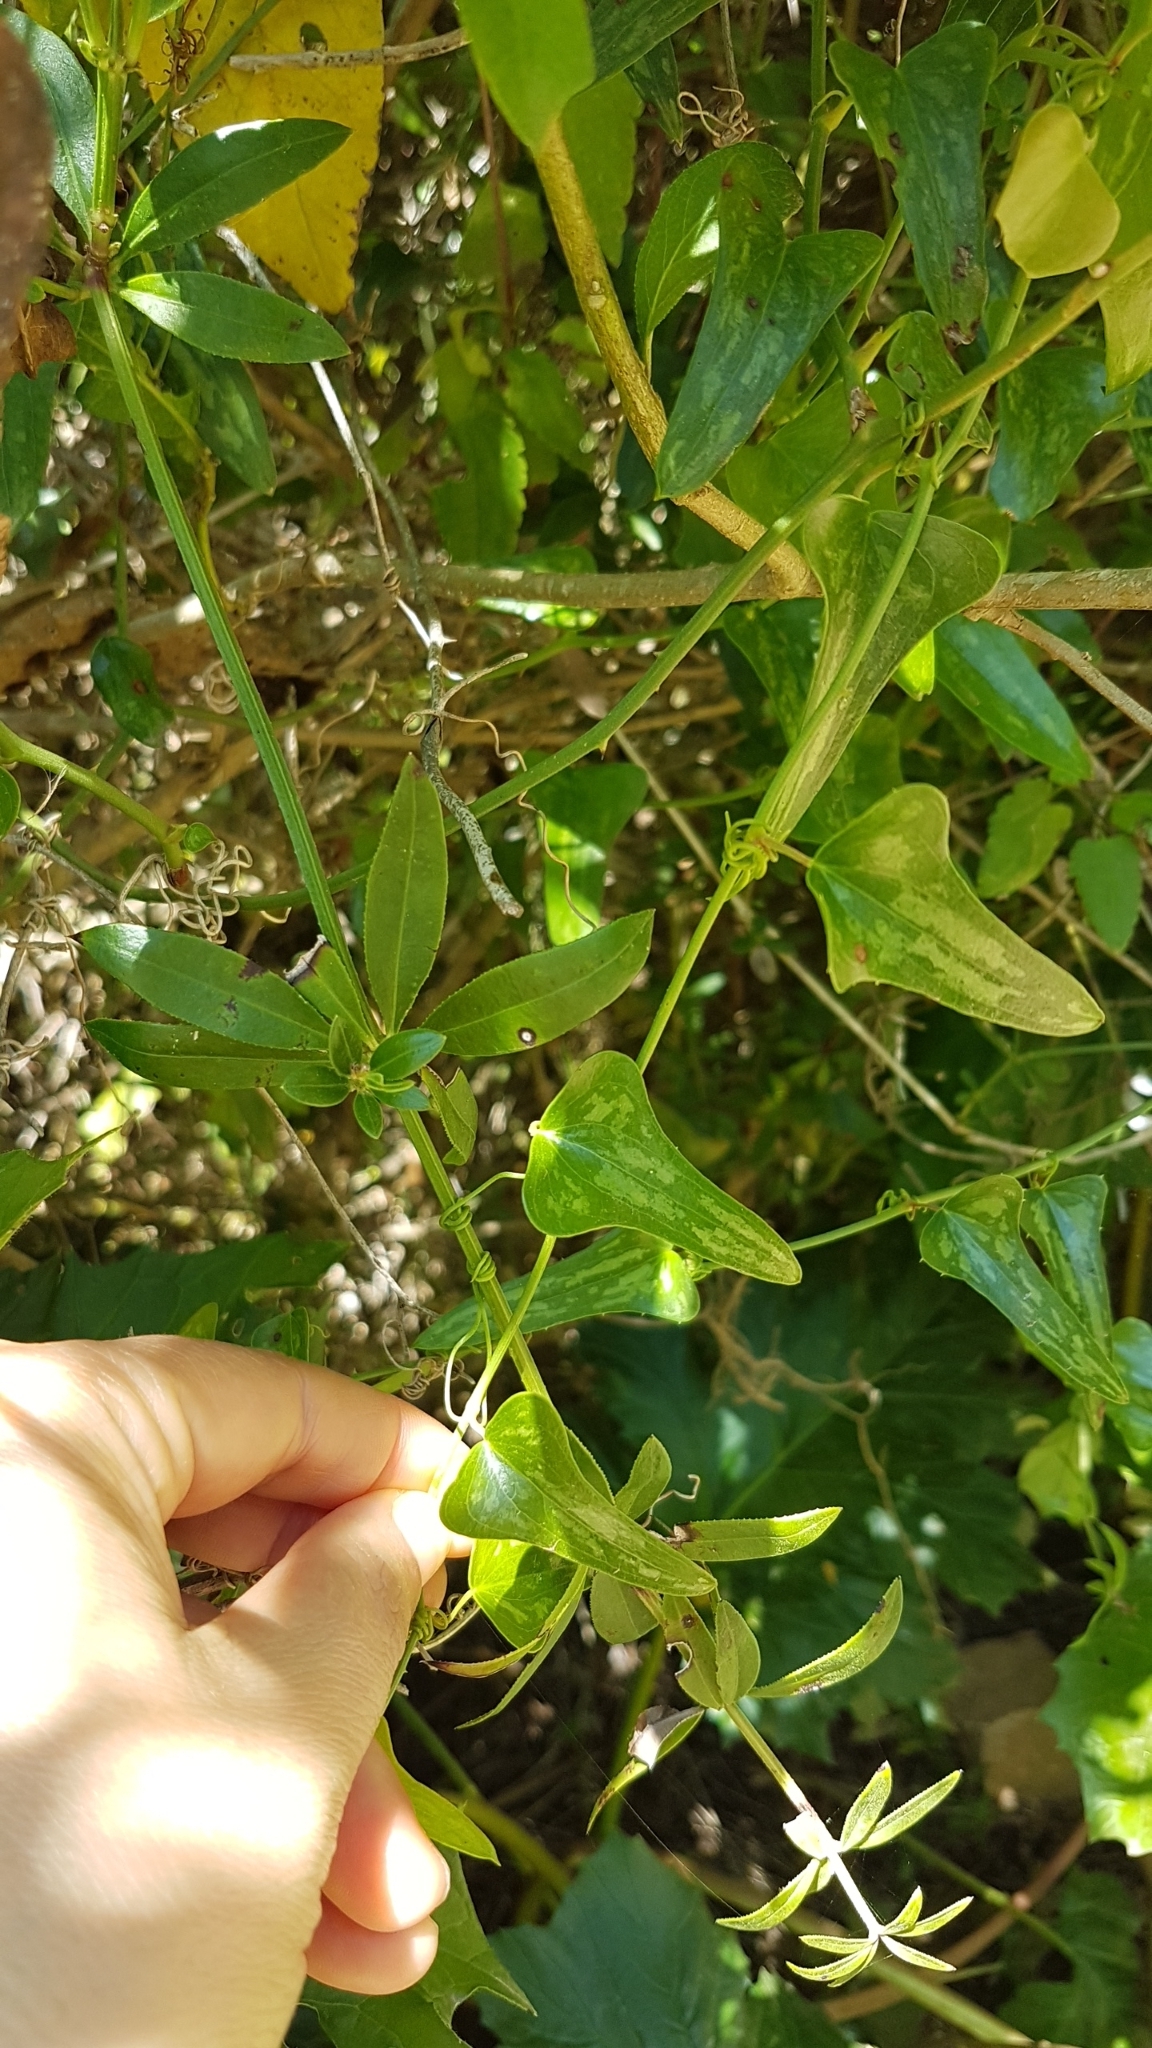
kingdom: Plantae
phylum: Tracheophyta
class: Liliopsida
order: Liliales
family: Smilacaceae
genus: Smilax
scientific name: Smilax aspera
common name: Common smilax
